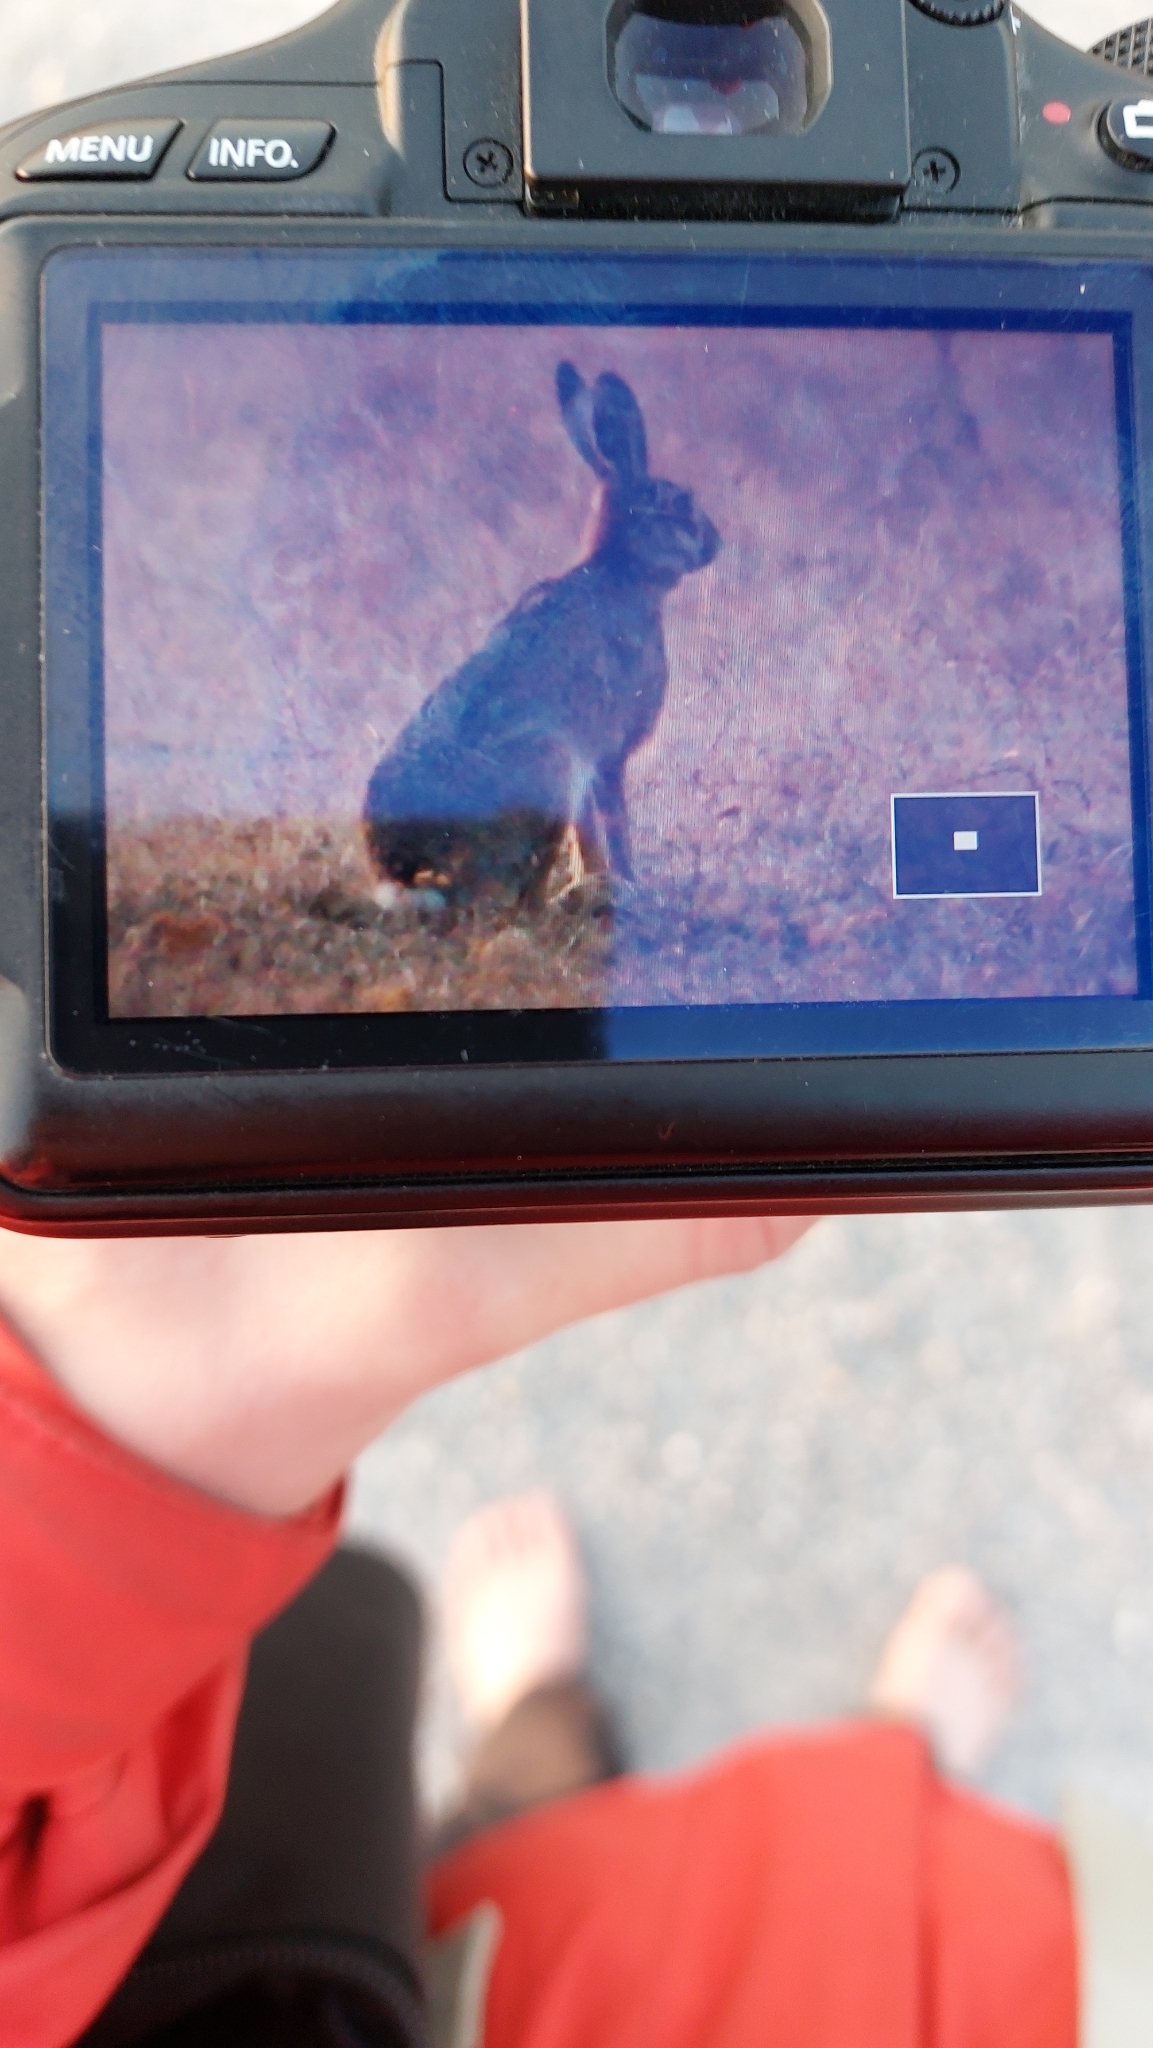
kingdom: Animalia
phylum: Chordata
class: Mammalia
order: Lagomorpha
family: Leporidae
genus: Lepus
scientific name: Lepus europaeus
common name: European hare
